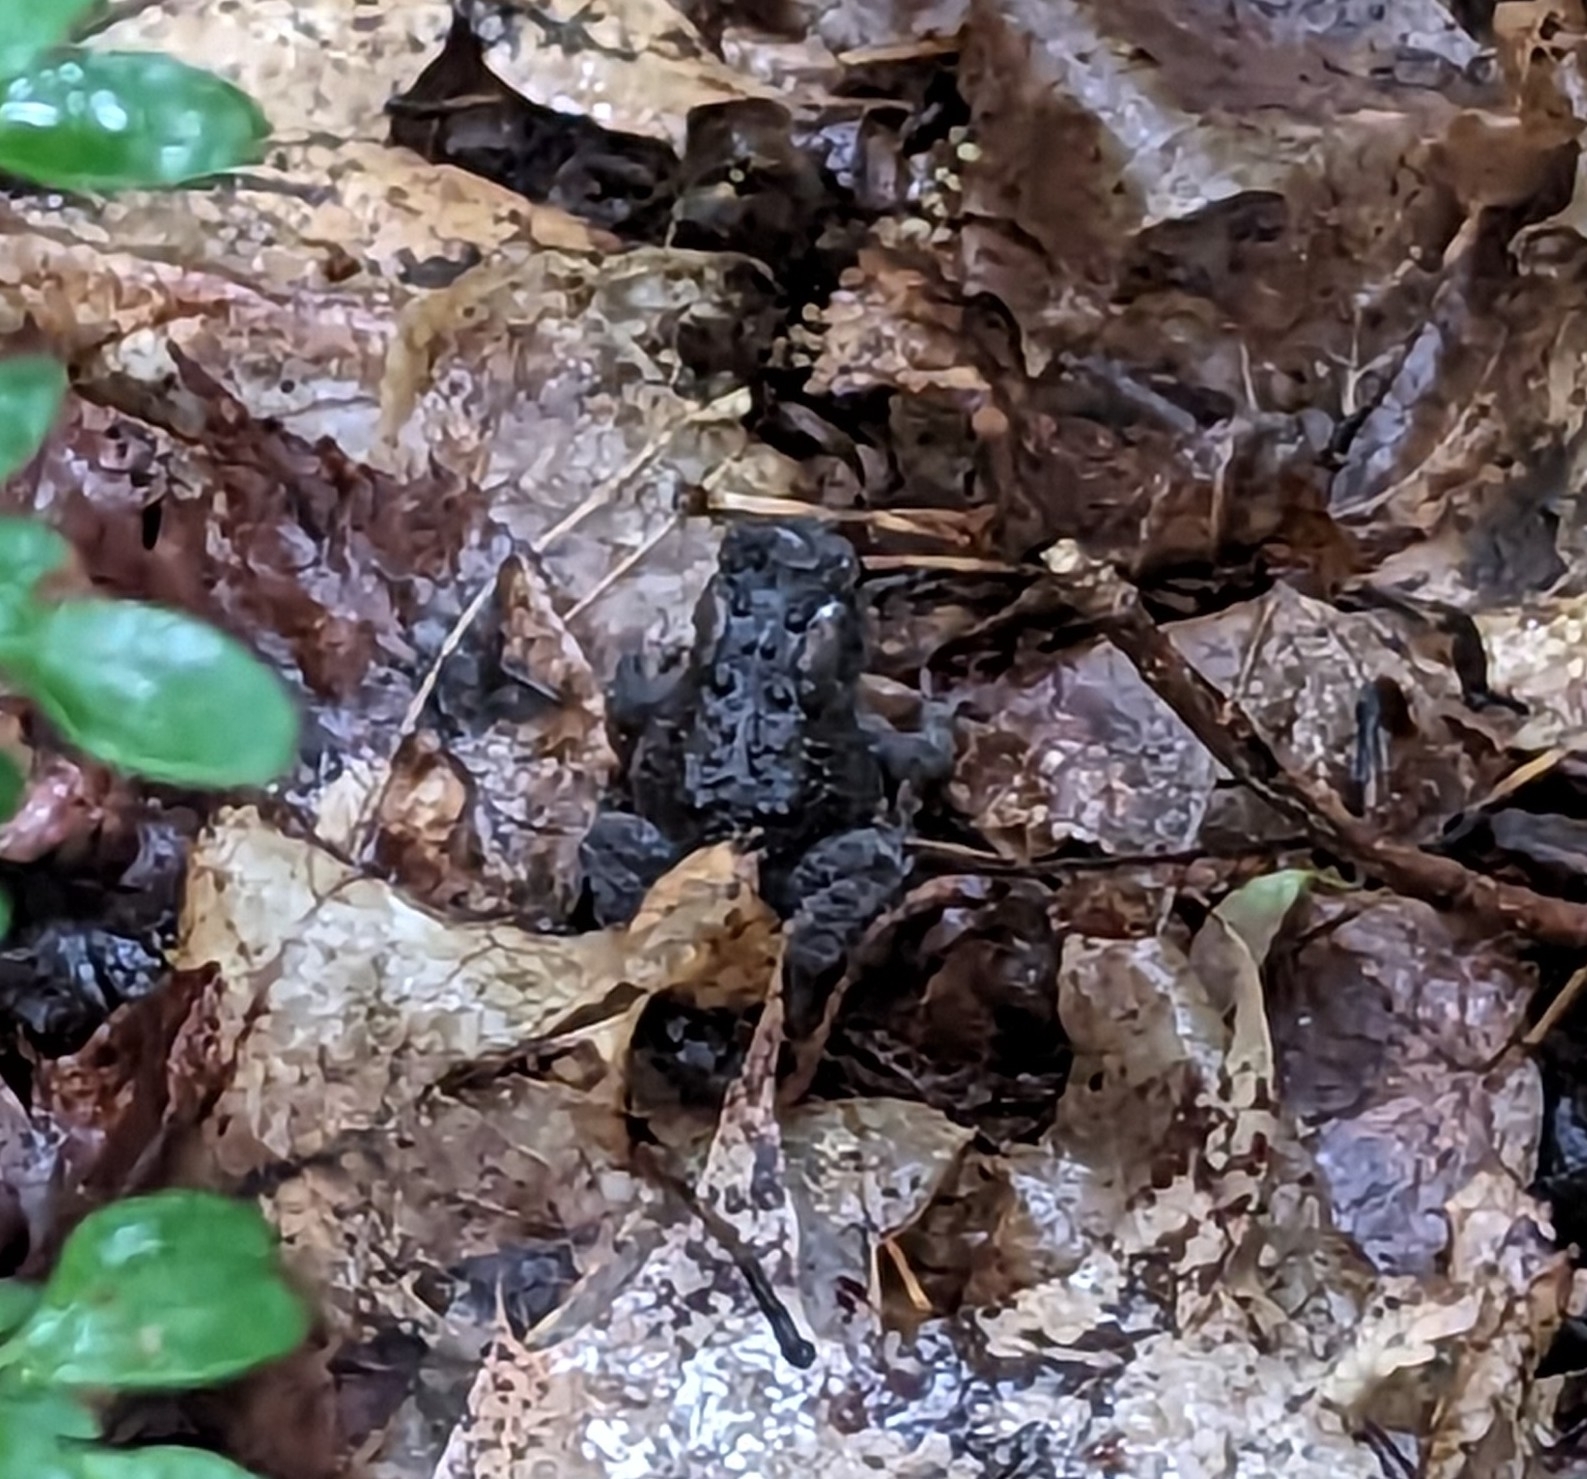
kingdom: Animalia
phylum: Chordata
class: Amphibia
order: Anura
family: Bufonidae
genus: Anaxyrus
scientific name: Anaxyrus americanus
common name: American toad
